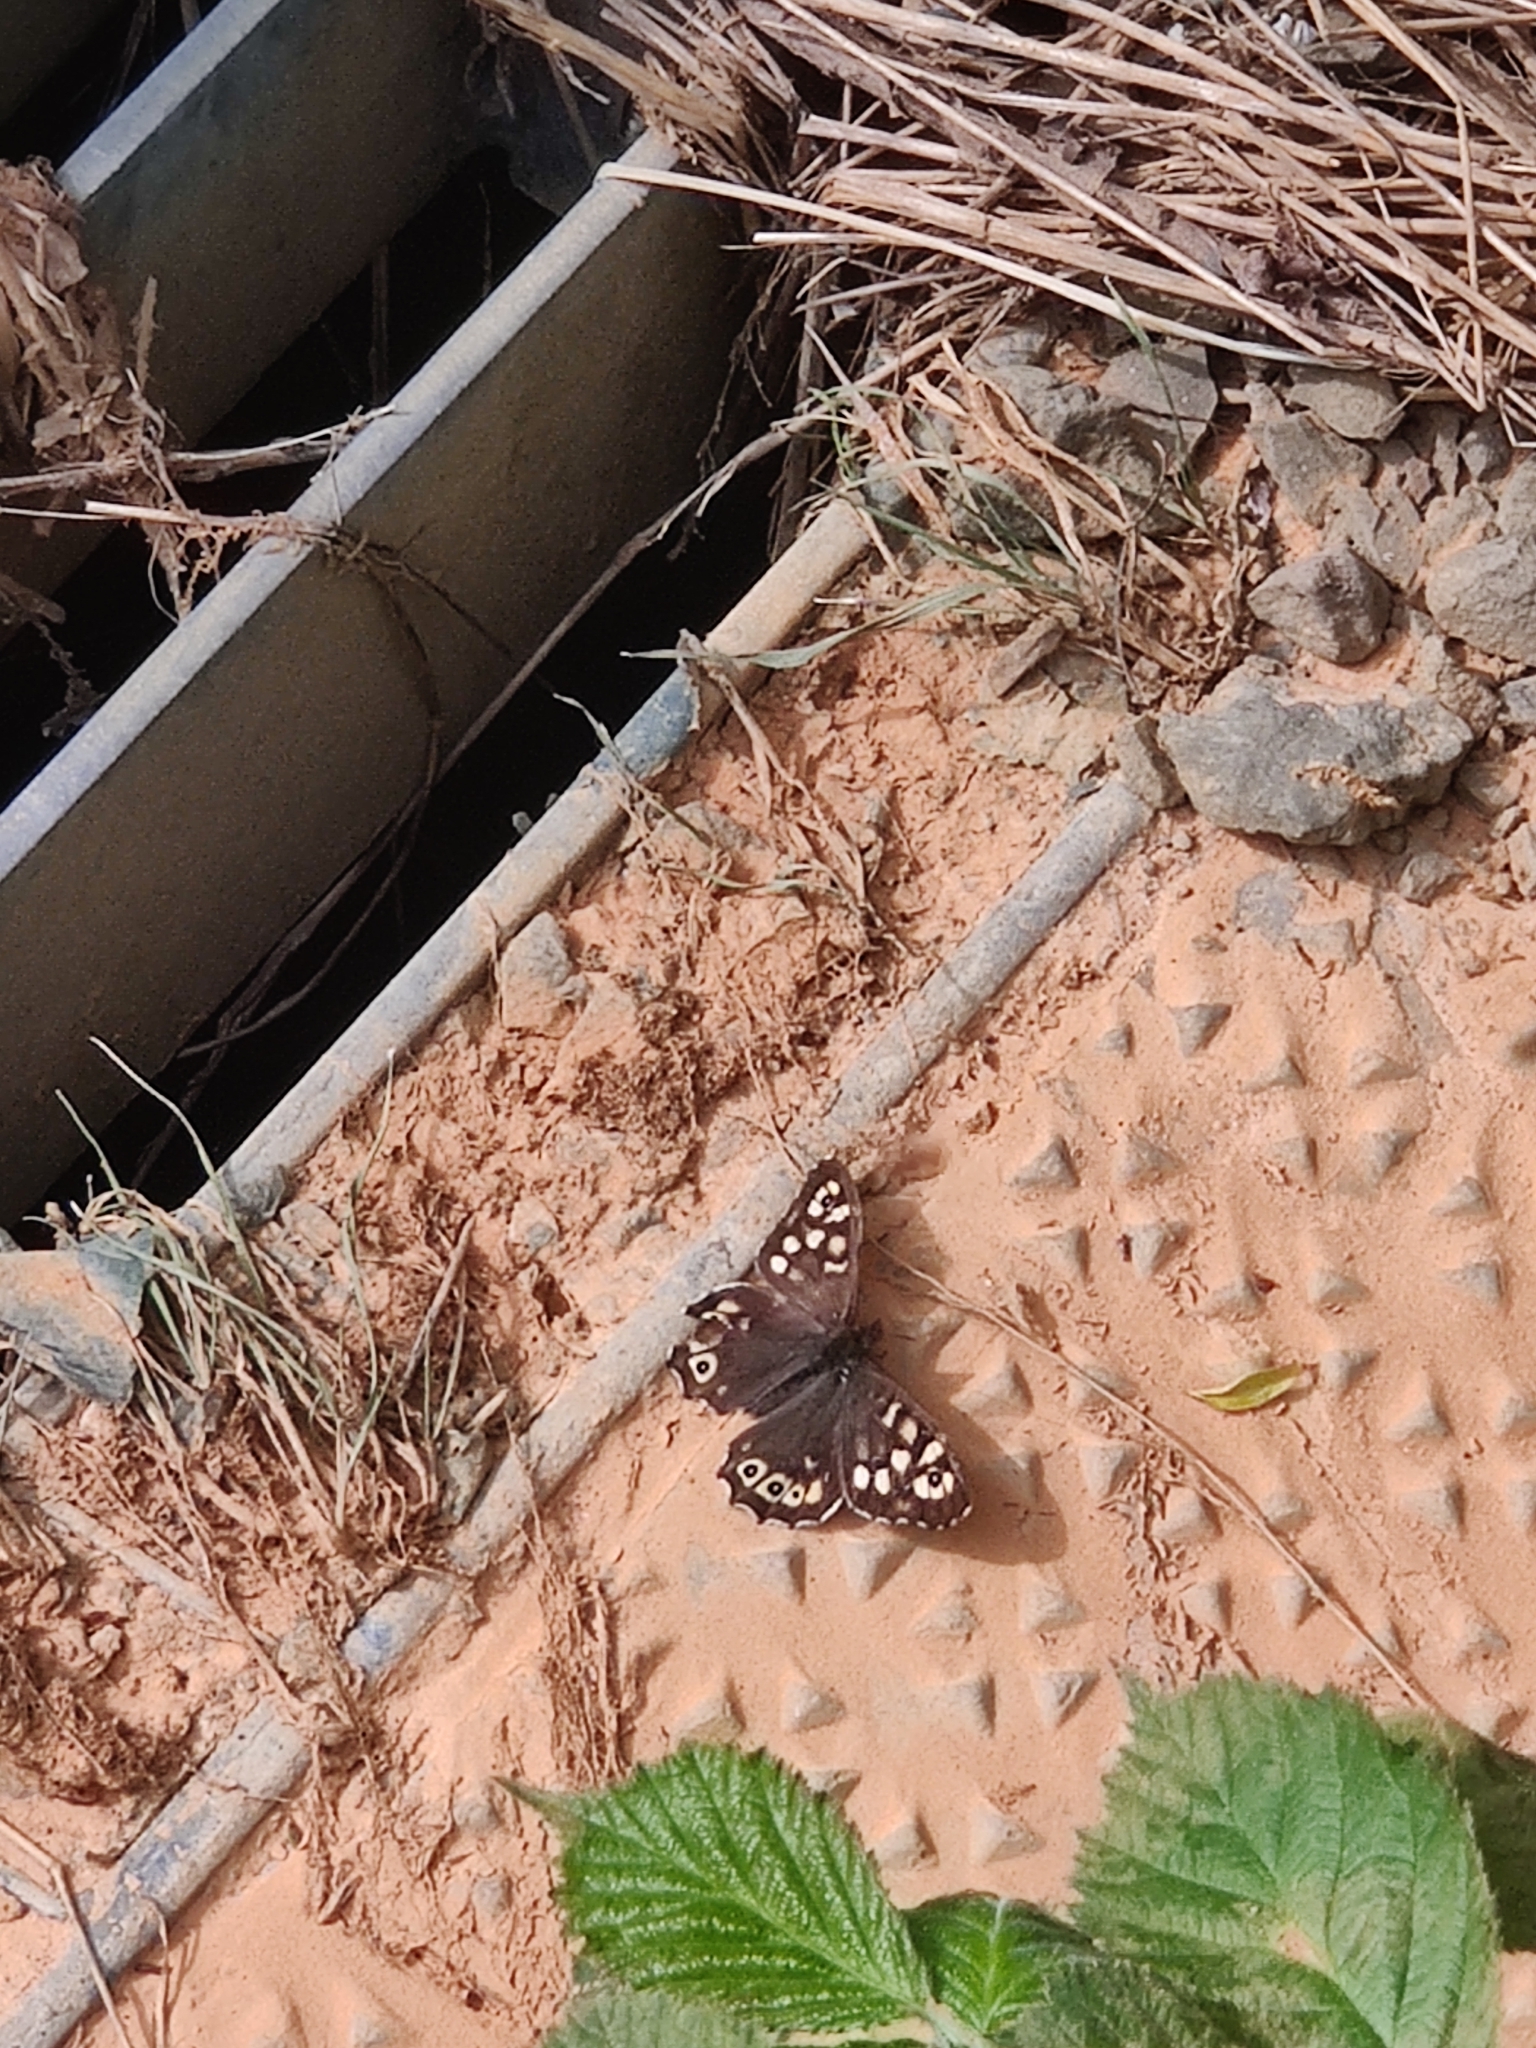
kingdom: Animalia
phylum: Arthropoda
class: Insecta
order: Lepidoptera
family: Nymphalidae
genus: Pararge
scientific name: Pararge aegeria
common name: Speckled wood
